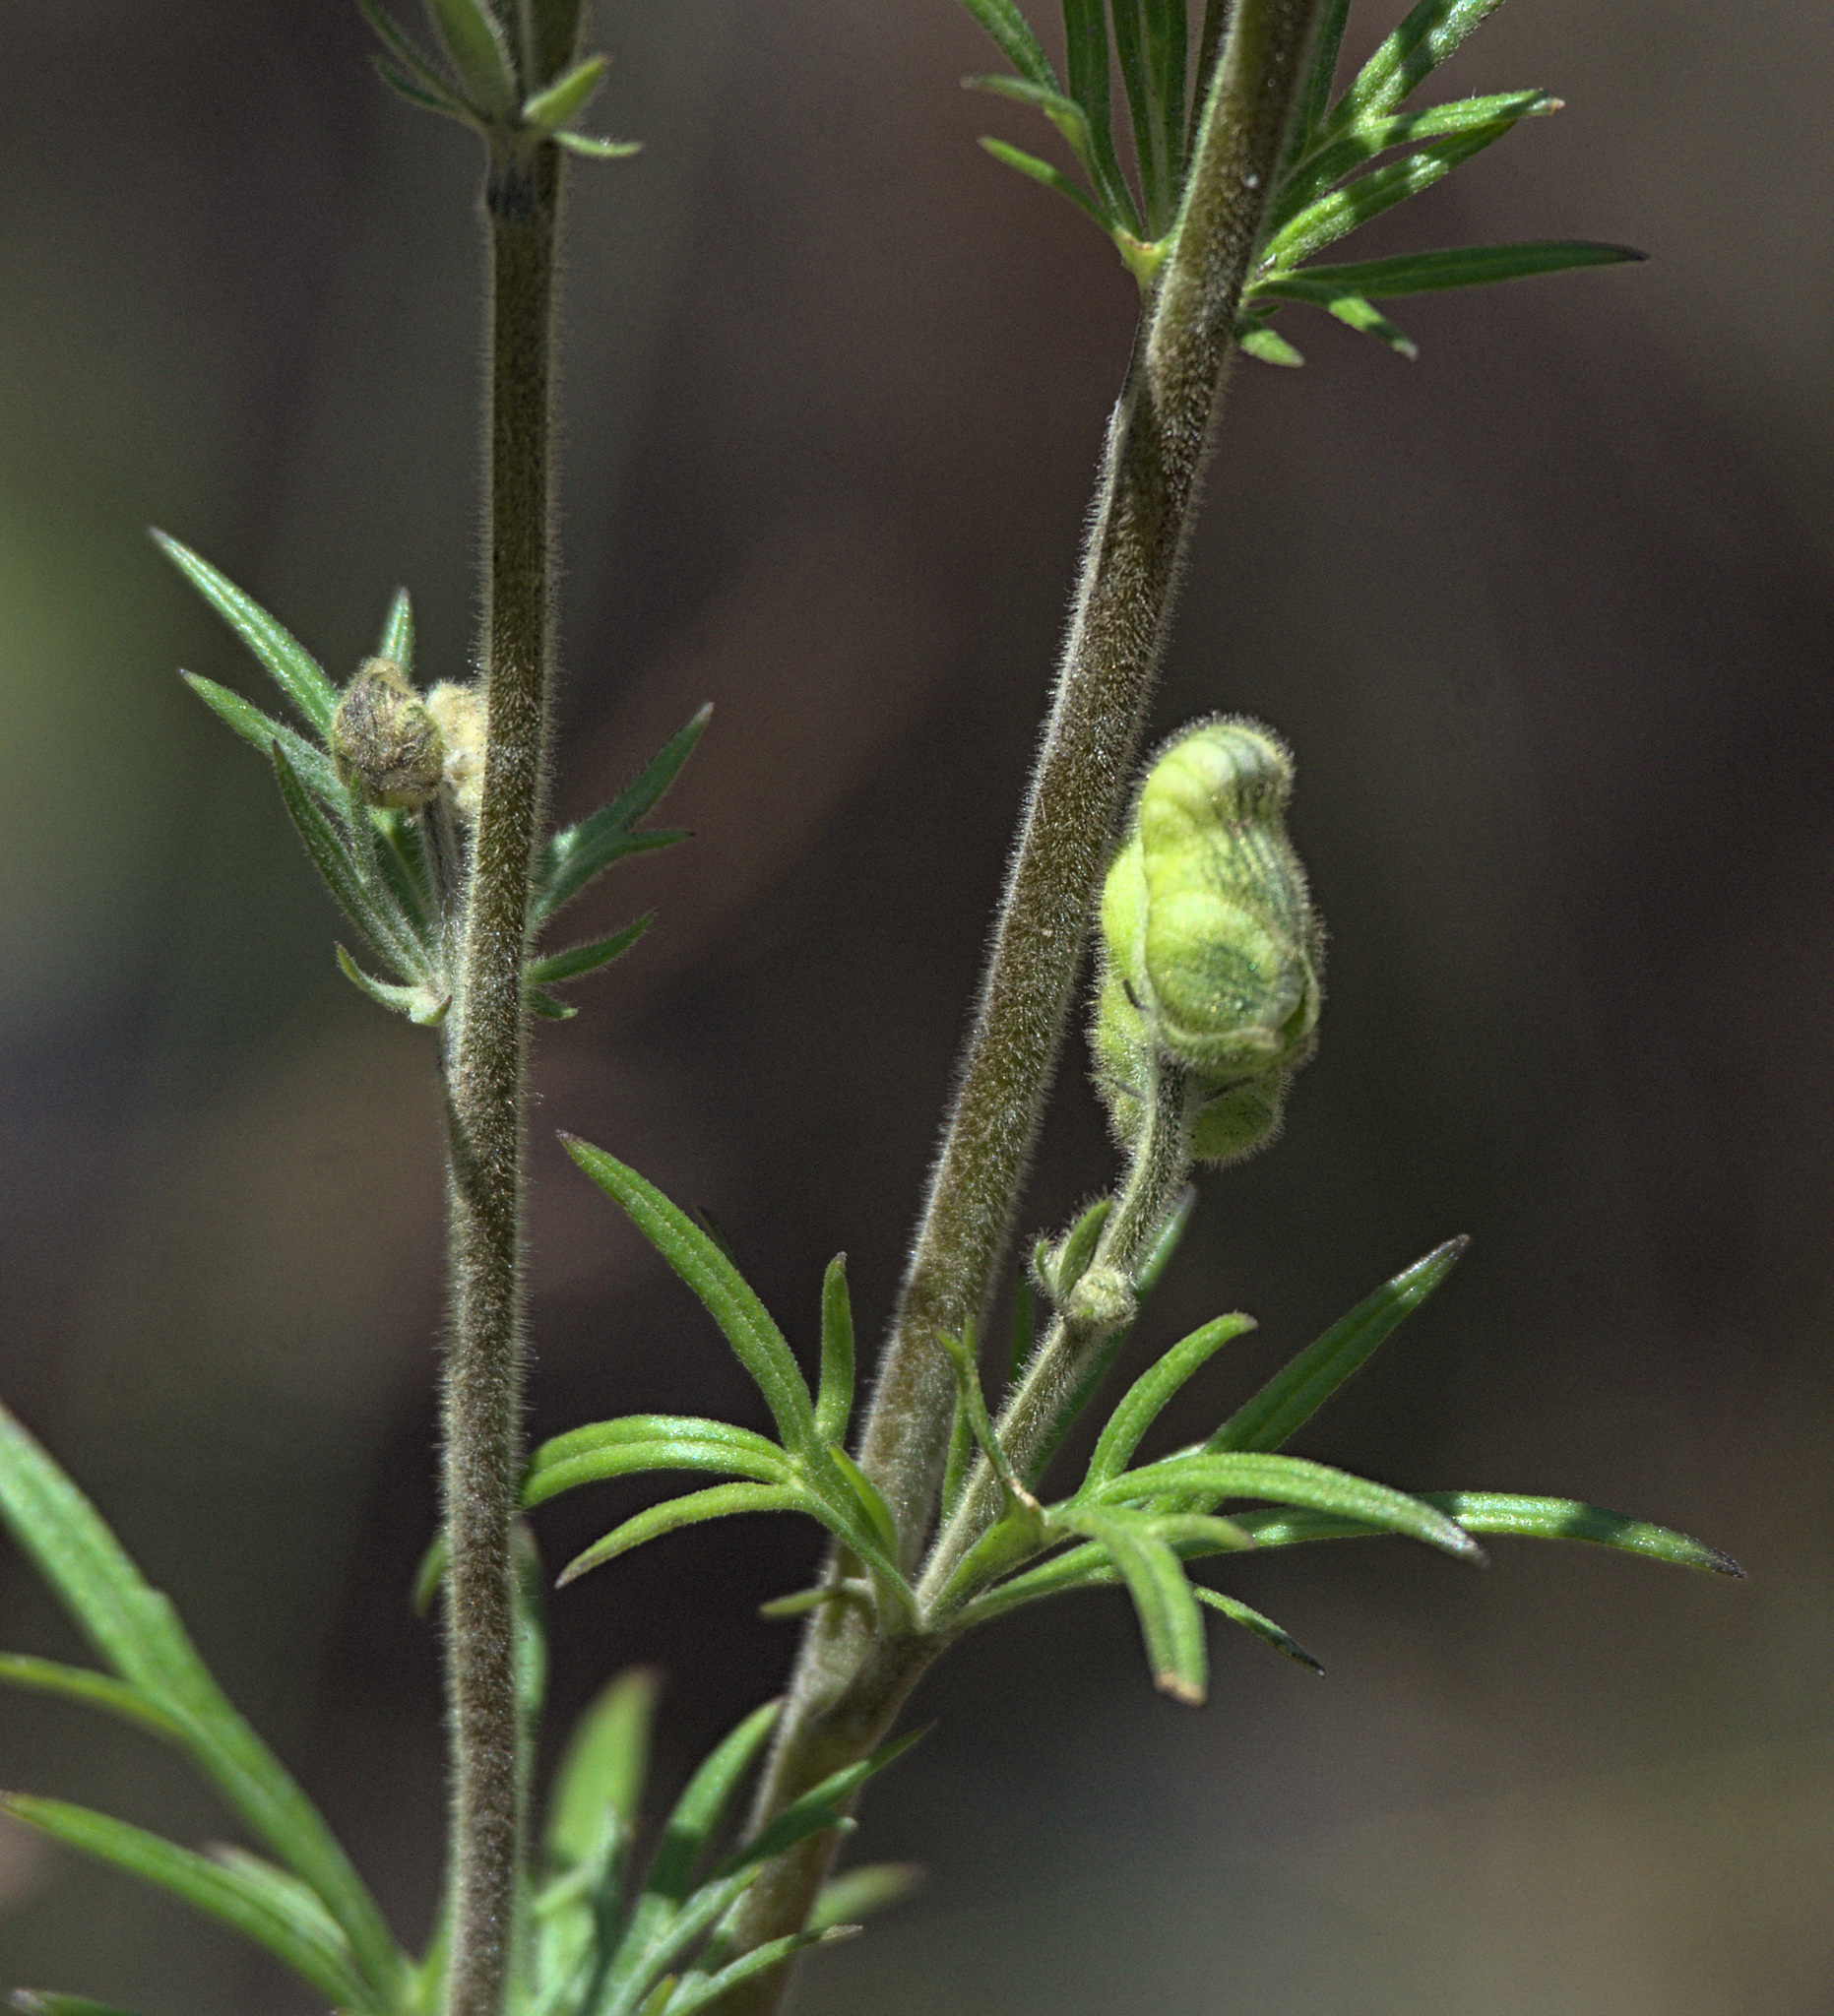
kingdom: Plantae
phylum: Tracheophyta
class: Magnoliopsida
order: Ranunculales
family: Ranunculaceae
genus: Aconitum
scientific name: Aconitum anthora
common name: Yellow monkshood
